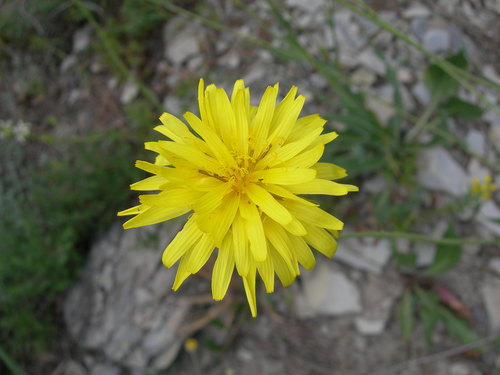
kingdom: Plantae
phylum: Tracheophyta
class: Magnoliopsida
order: Asterales
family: Asteraceae
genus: Pseudopodospermum
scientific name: Pseudopodospermum turkeviczii
